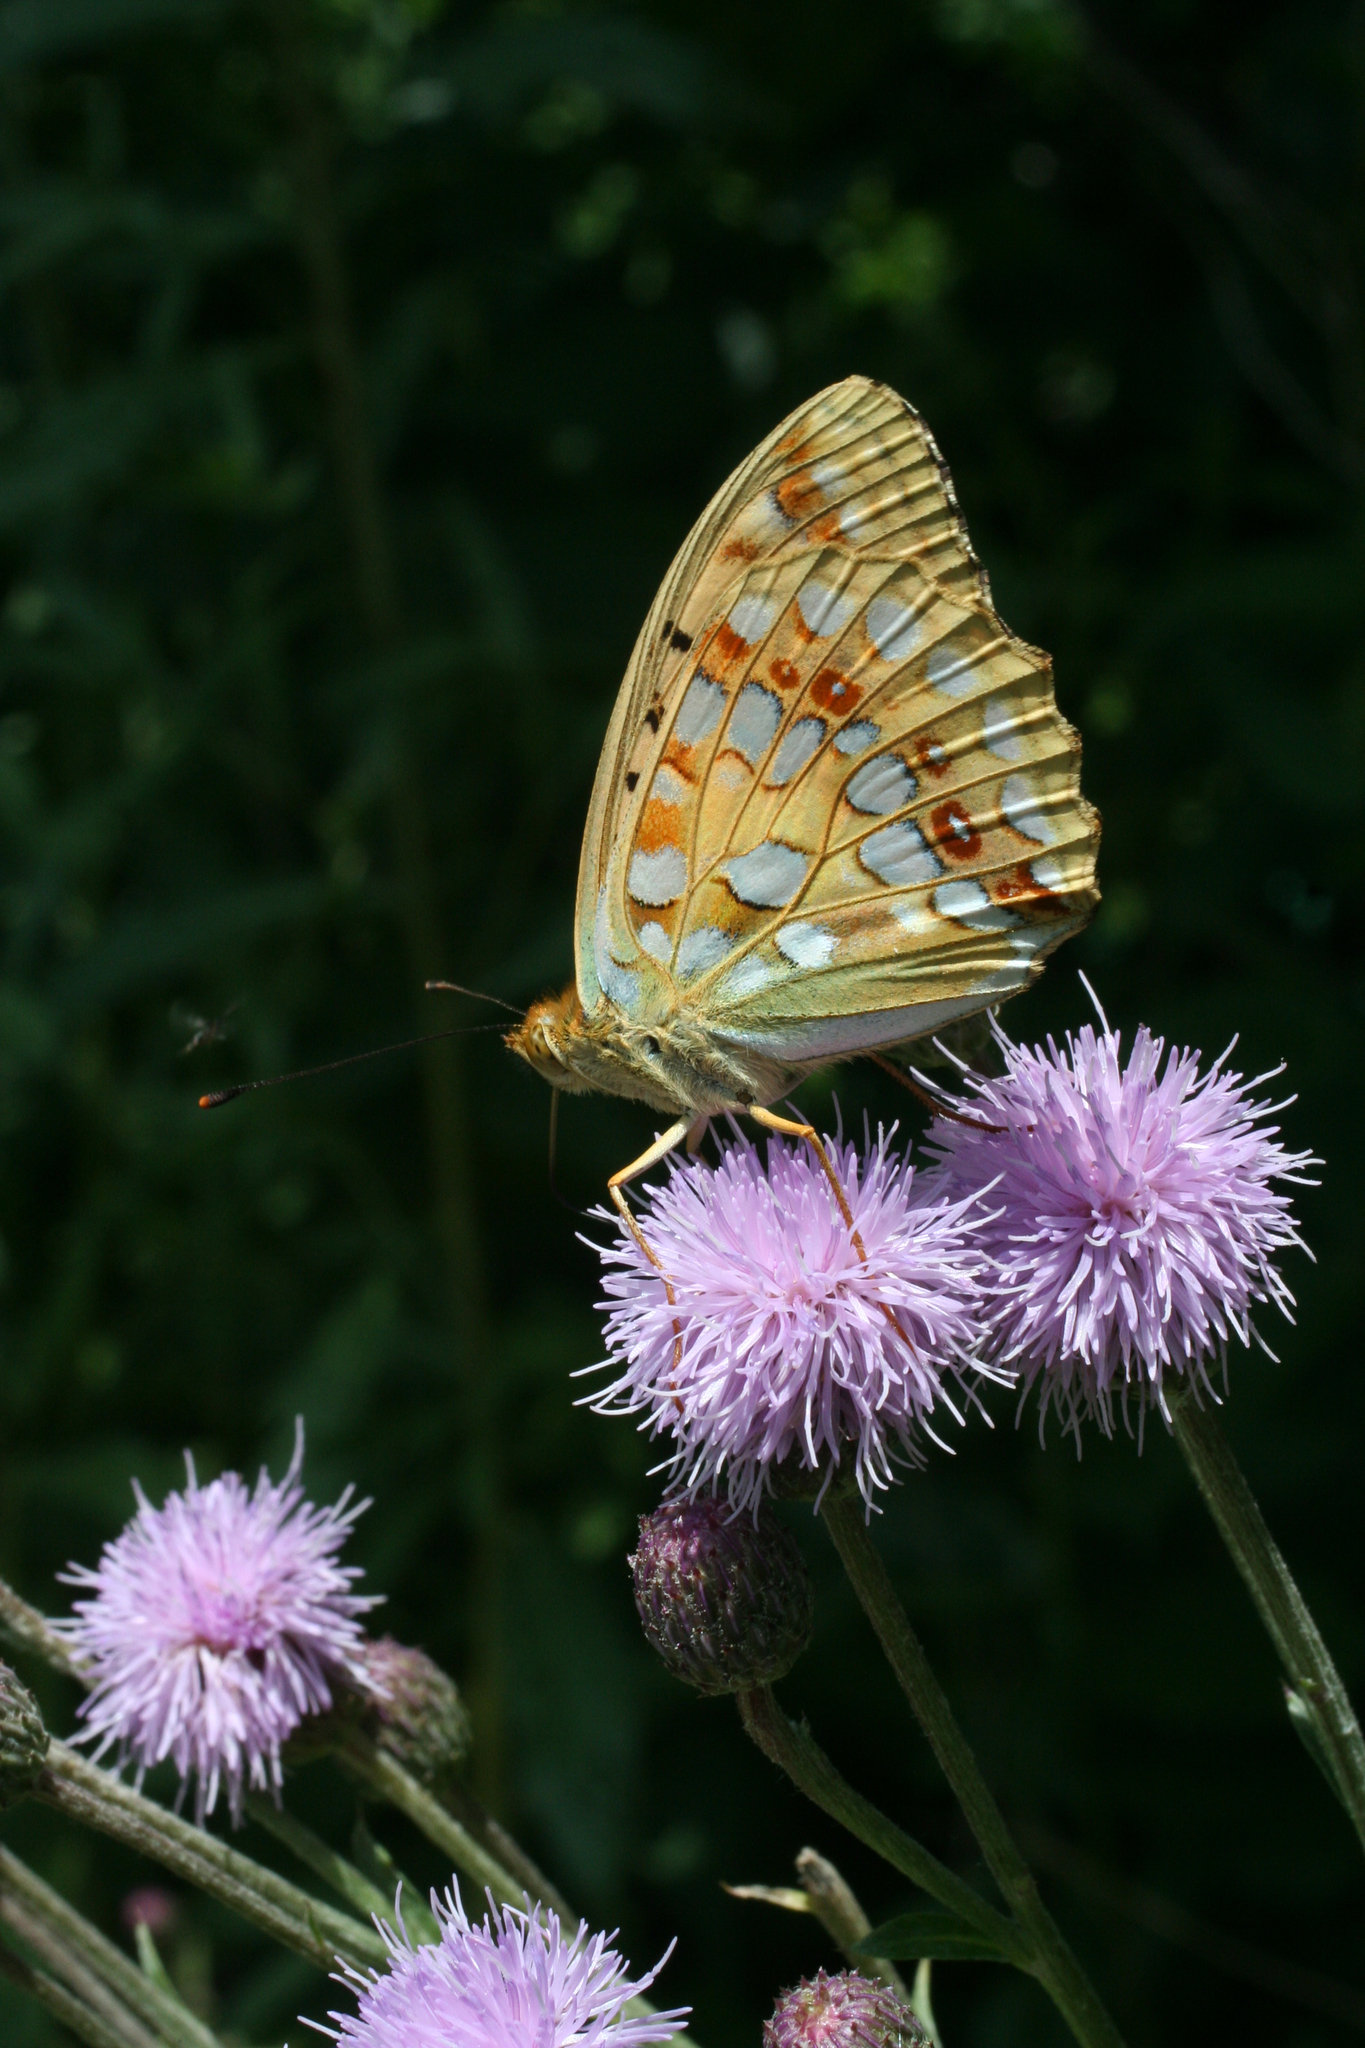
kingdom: Animalia
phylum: Arthropoda
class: Insecta
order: Lepidoptera
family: Nymphalidae
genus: Fabriciana
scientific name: Fabriciana adippe
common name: High brown fritillary
